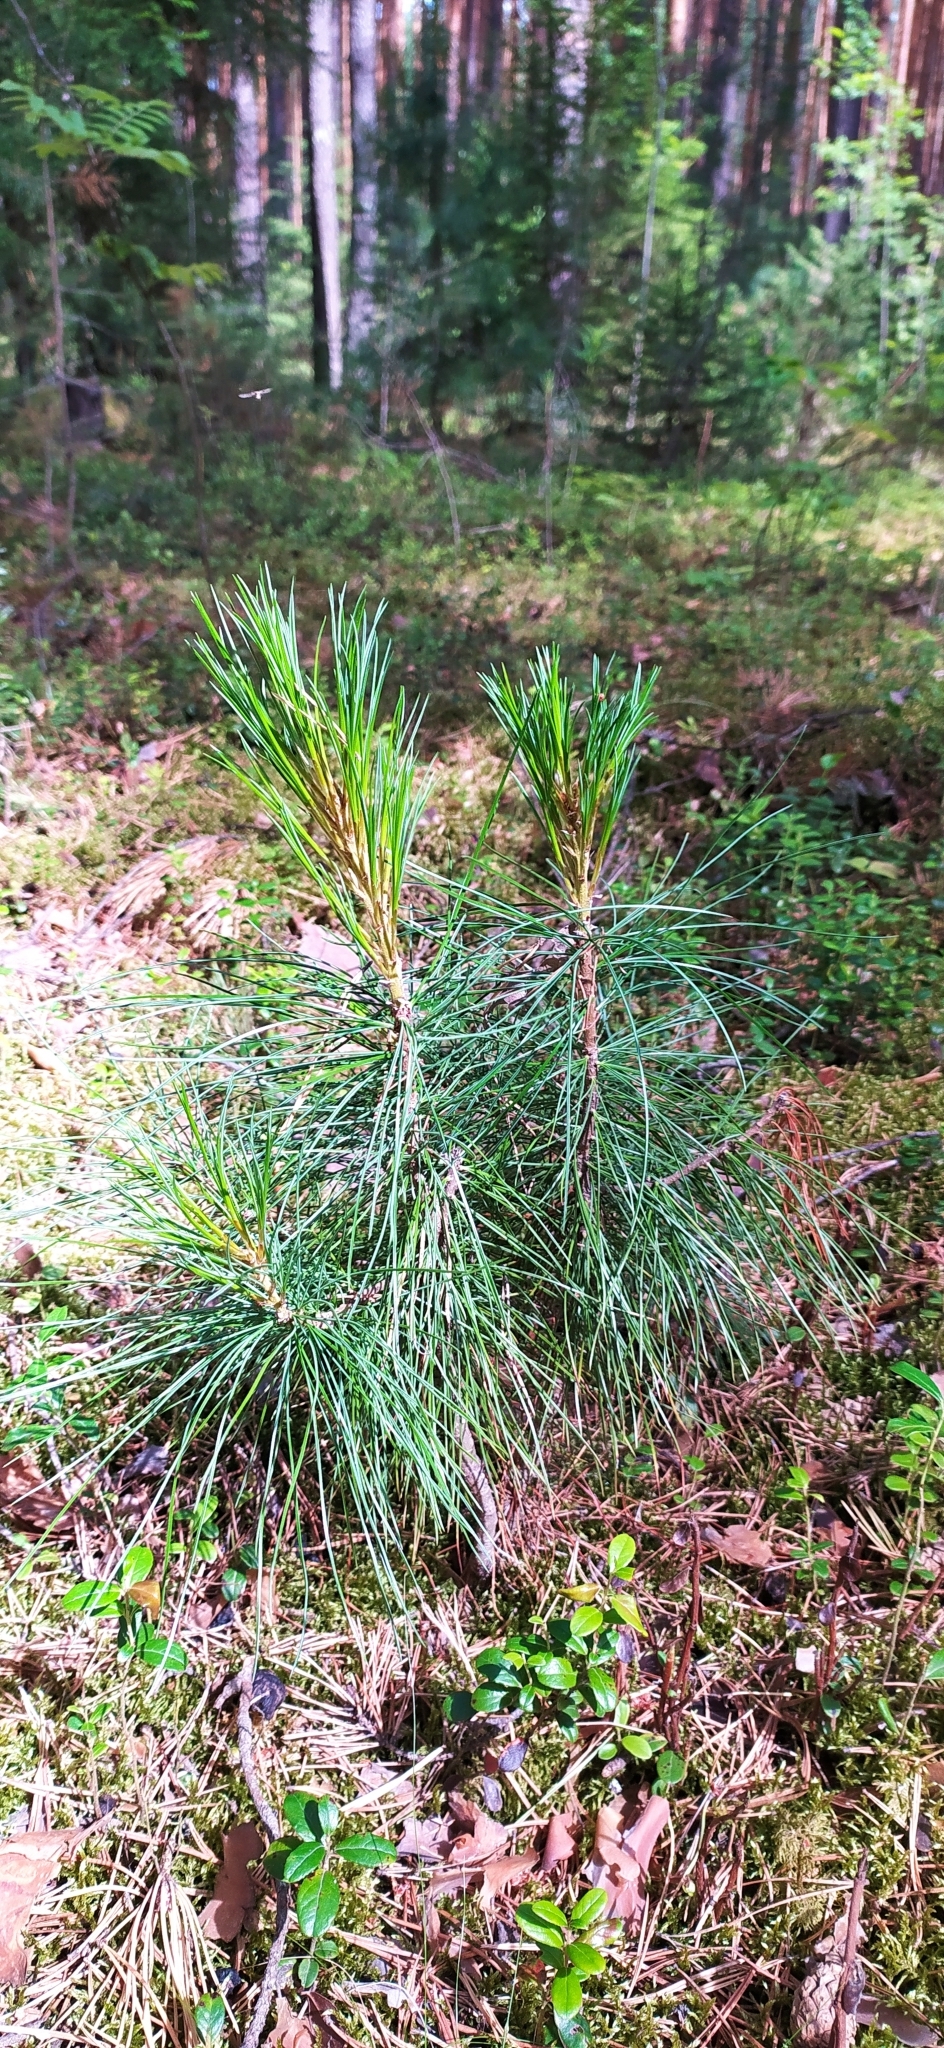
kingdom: Plantae
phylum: Tracheophyta
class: Pinopsida
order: Pinales
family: Pinaceae
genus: Pinus
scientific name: Pinus sibirica
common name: Siberian pine
